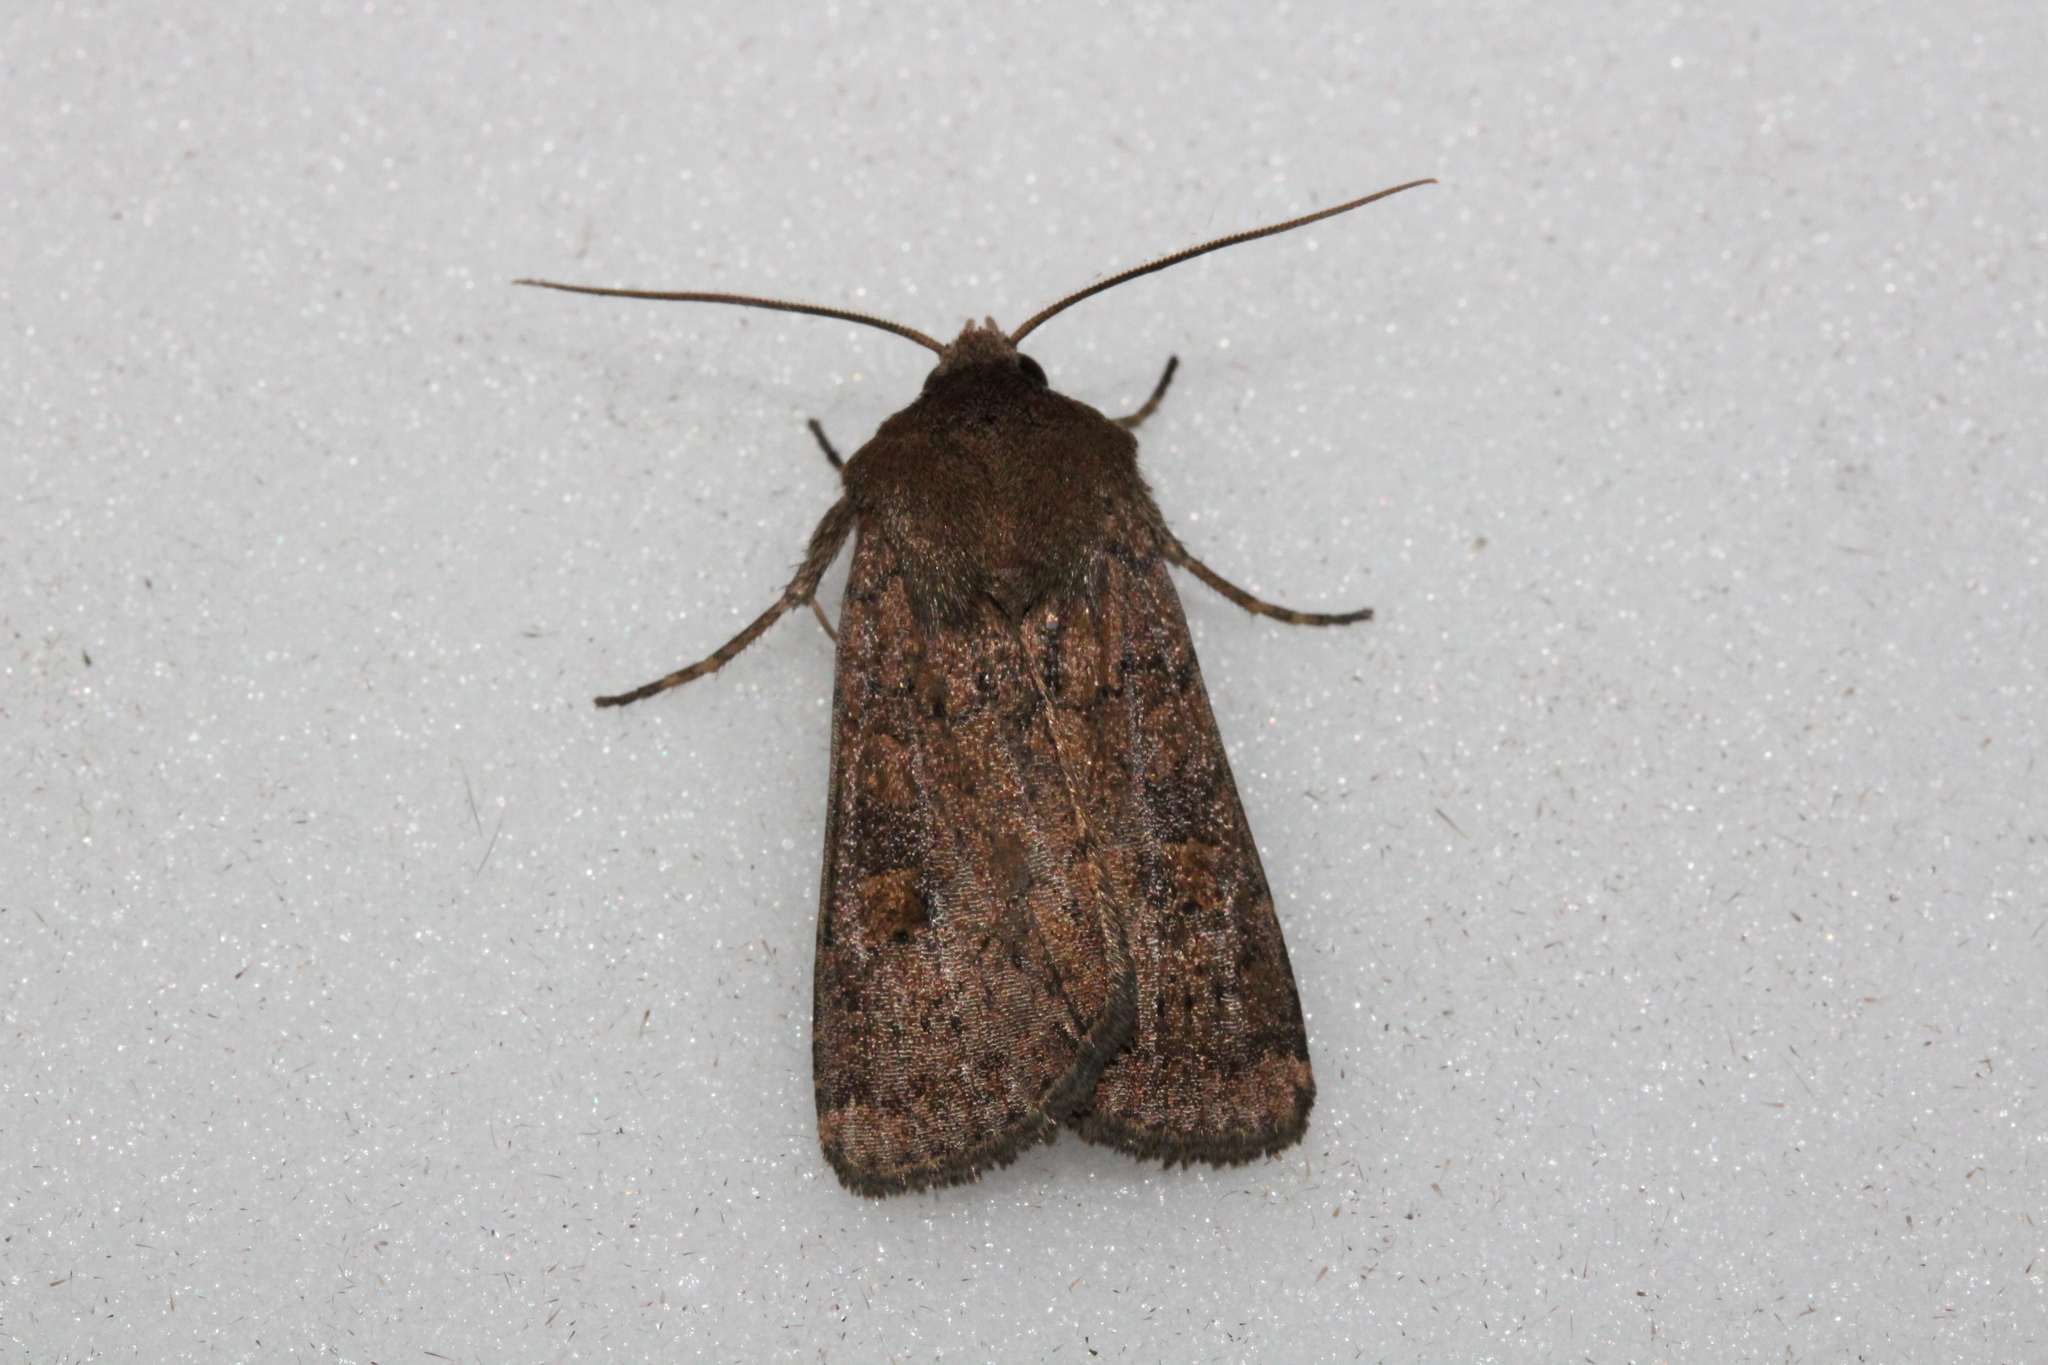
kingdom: Animalia
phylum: Arthropoda
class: Insecta
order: Lepidoptera
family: Noctuidae
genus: Xestia
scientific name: Xestia xanthographa
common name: Square-spot rustic
